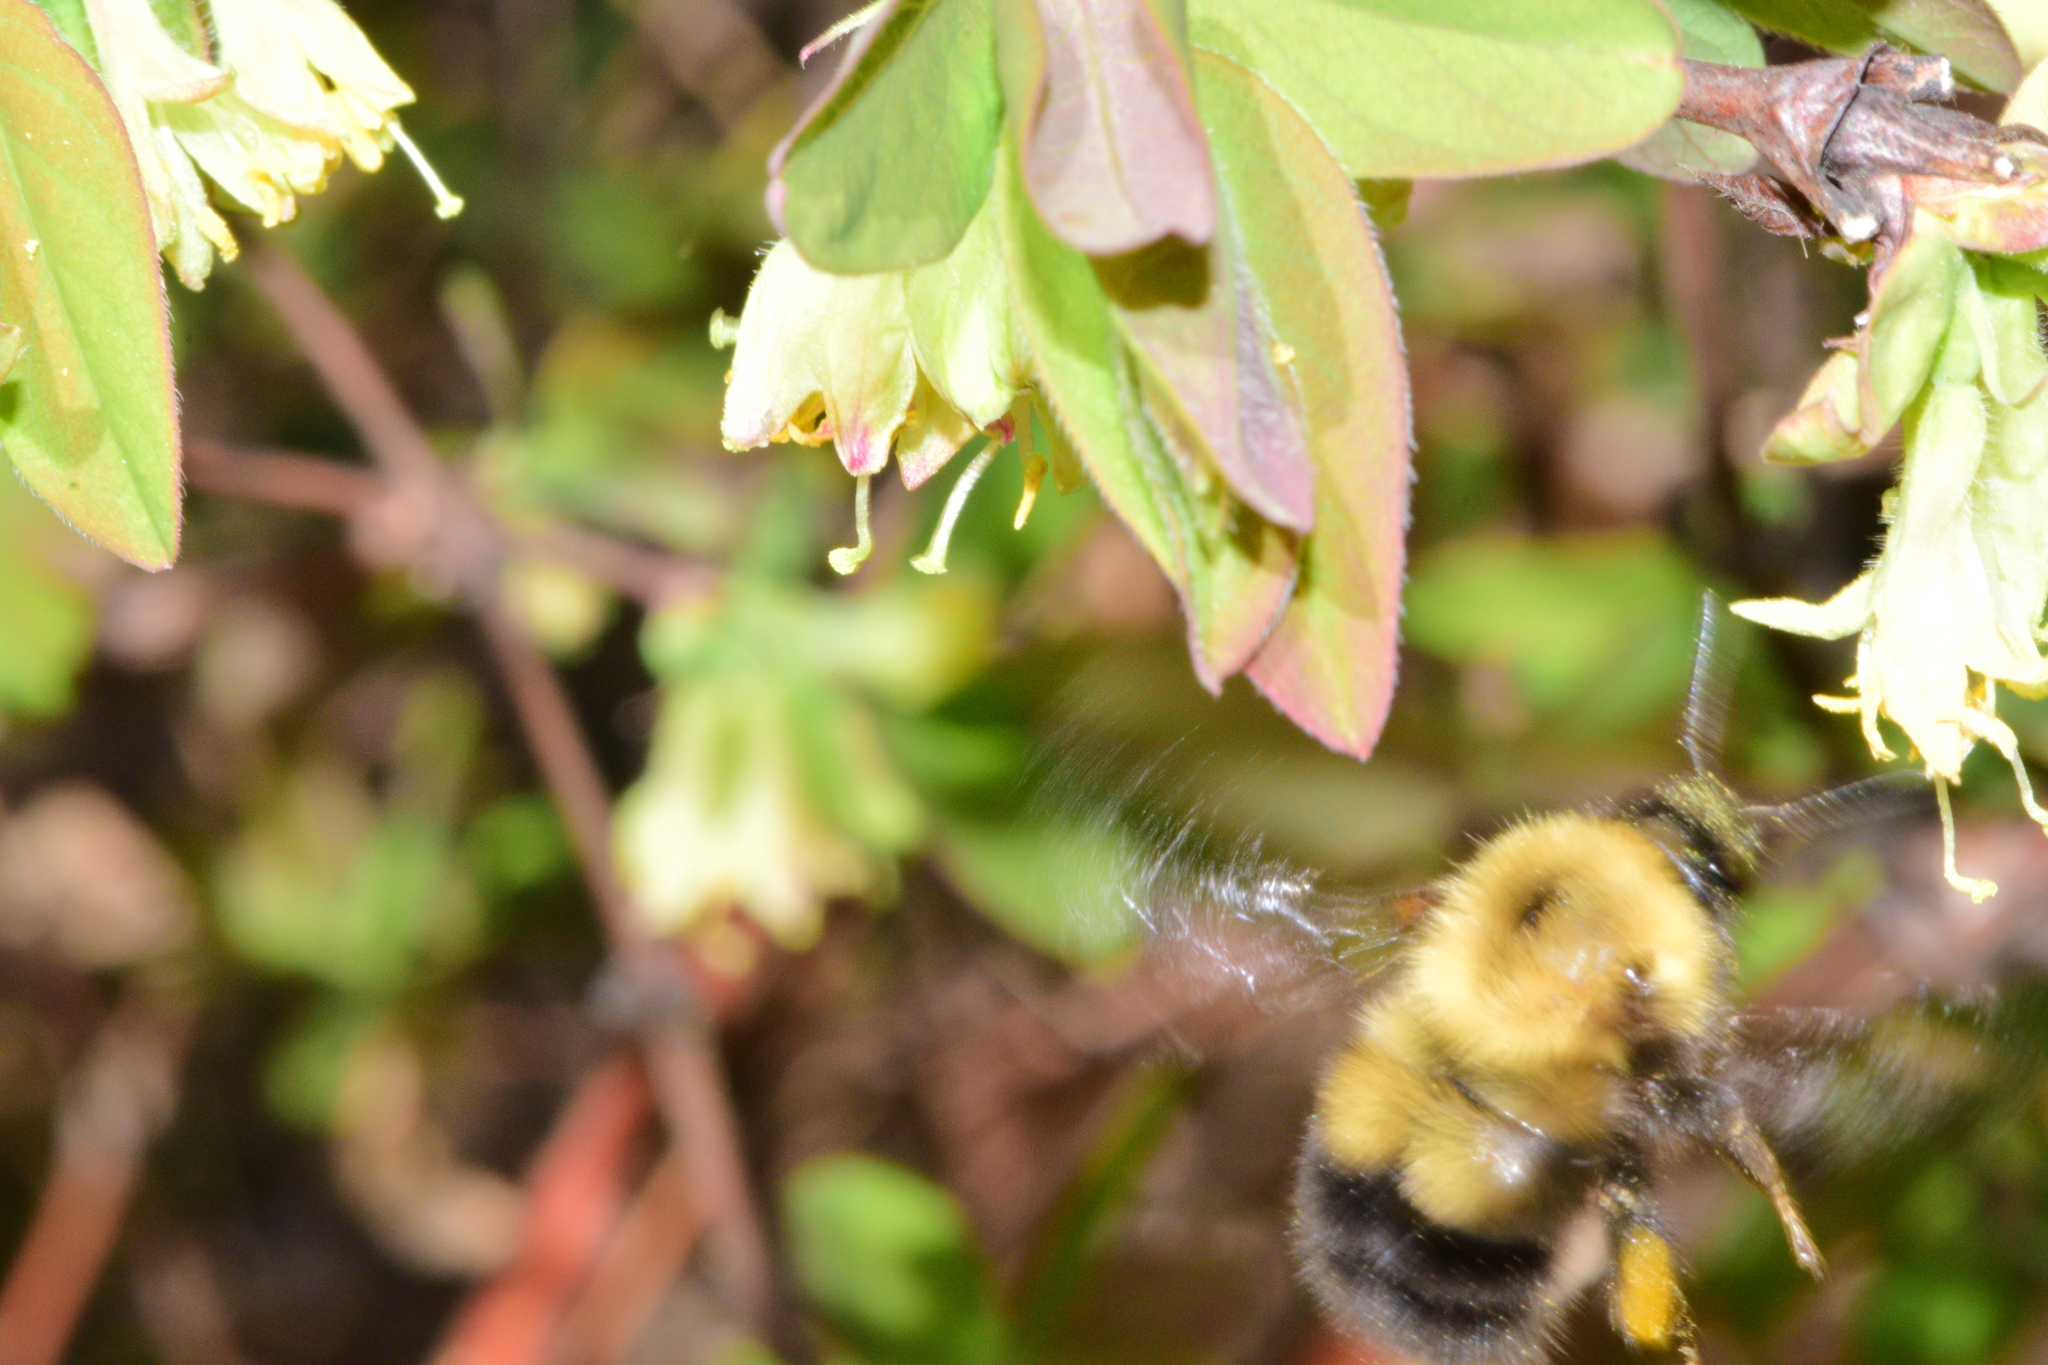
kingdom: Animalia
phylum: Arthropoda
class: Insecta
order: Hymenoptera
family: Apidae
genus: Bombus
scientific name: Bombus perplexus
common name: Confusing bumble bee
